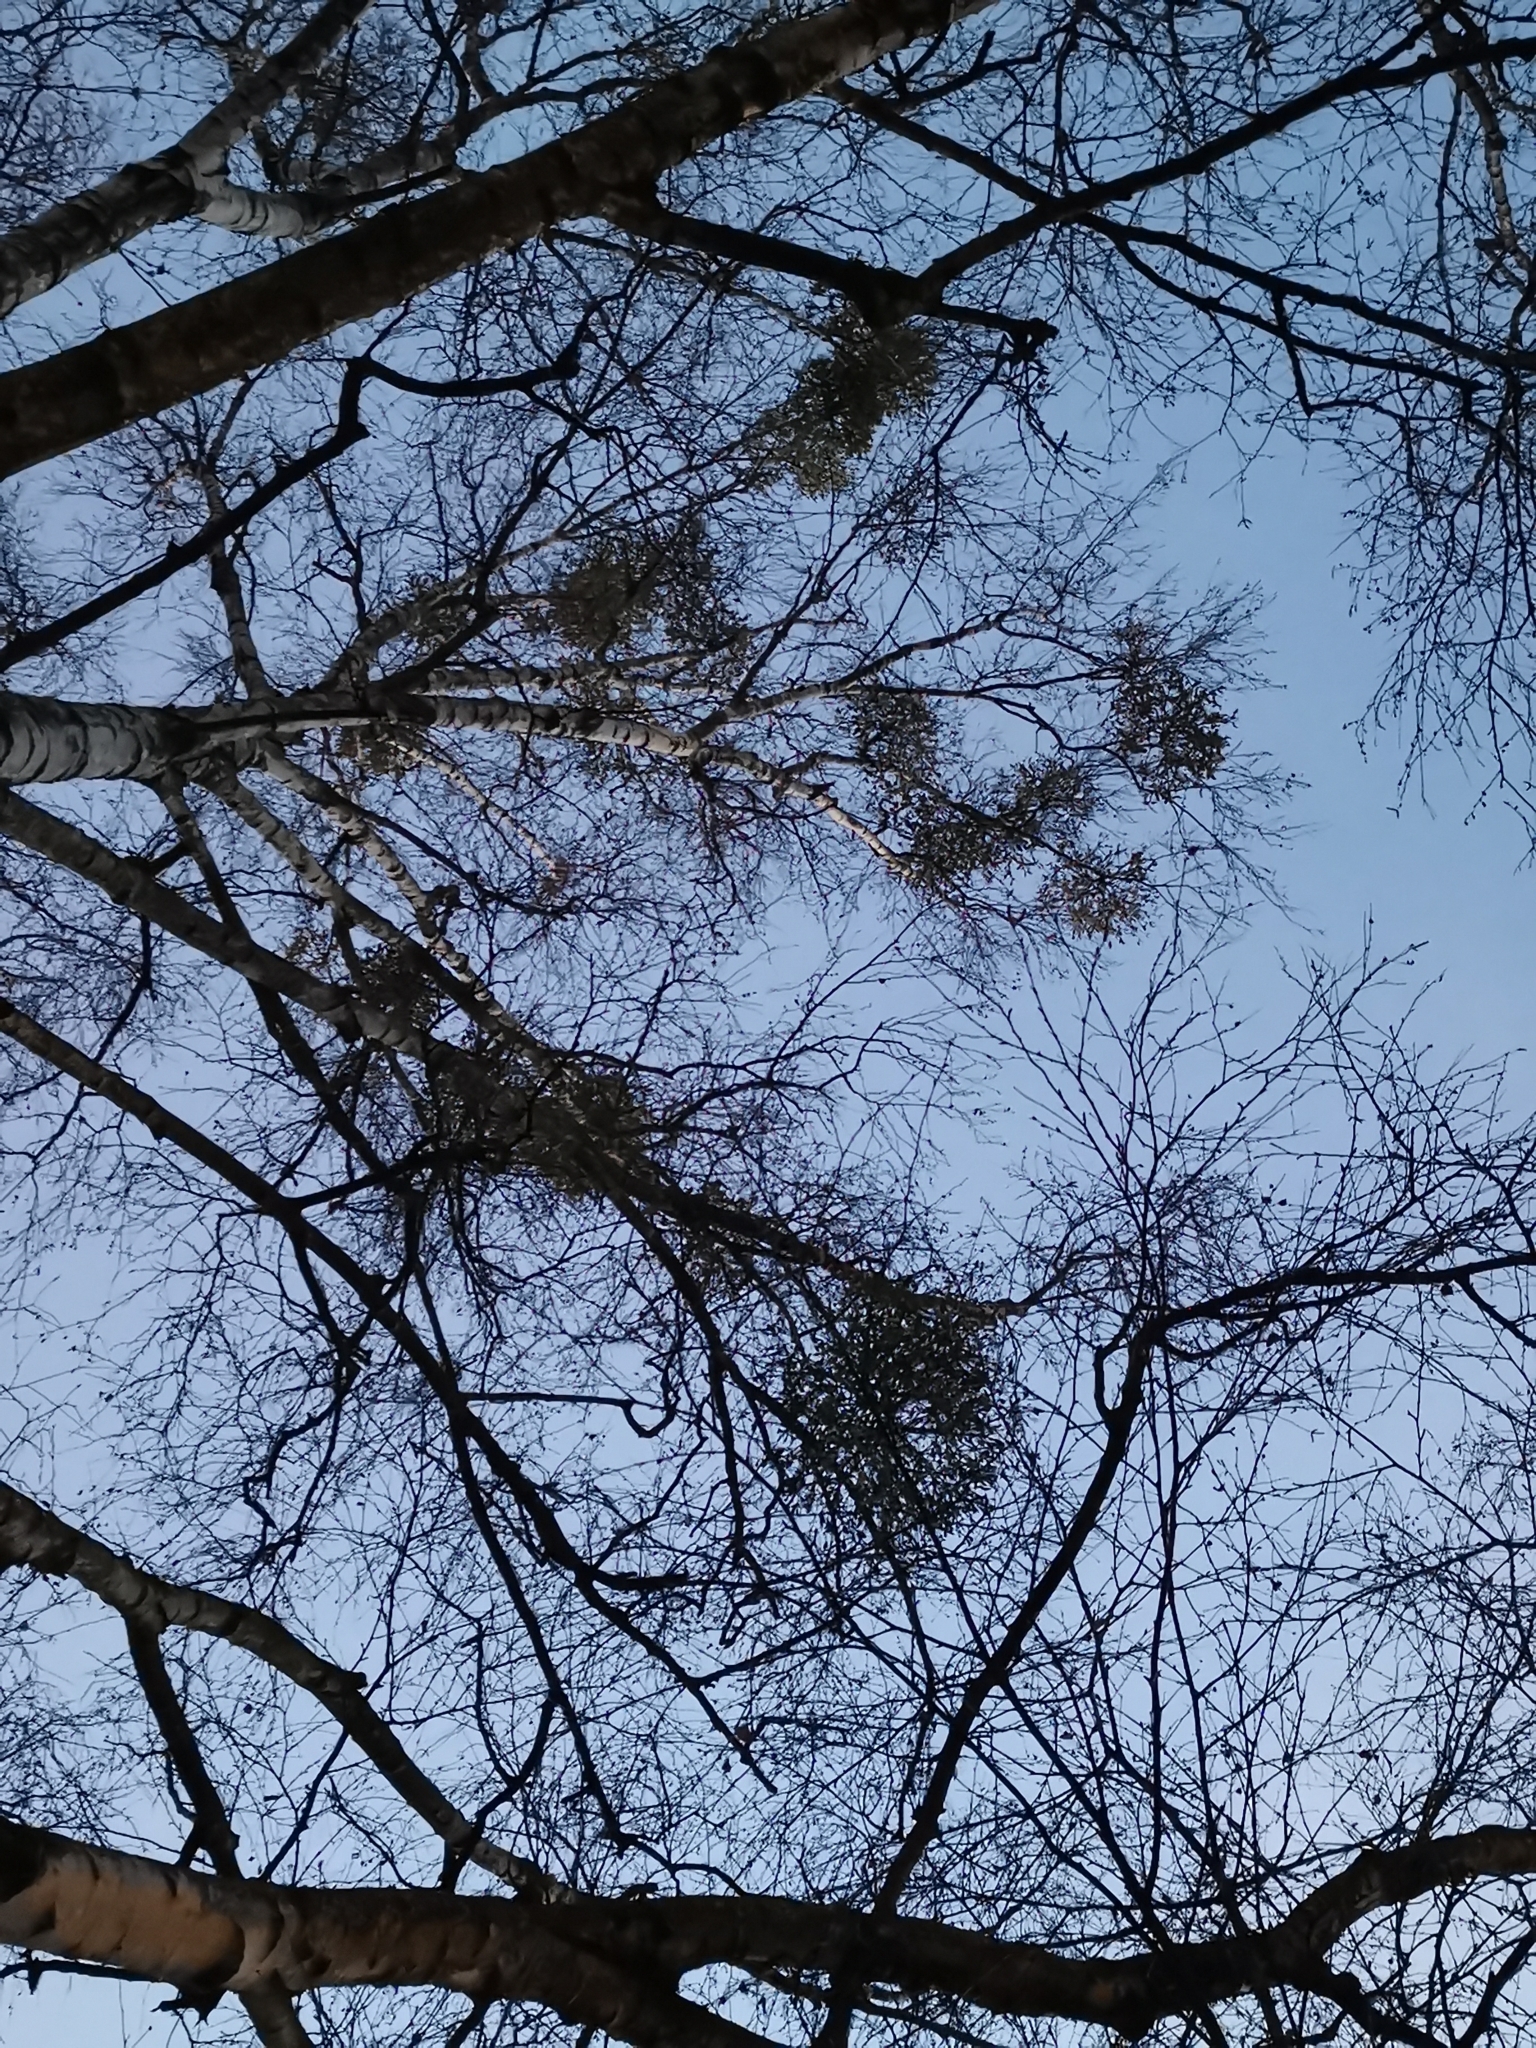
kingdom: Plantae
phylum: Tracheophyta
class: Magnoliopsida
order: Santalales
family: Viscaceae
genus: Viscum
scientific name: Viscum album
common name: Mistletoe
